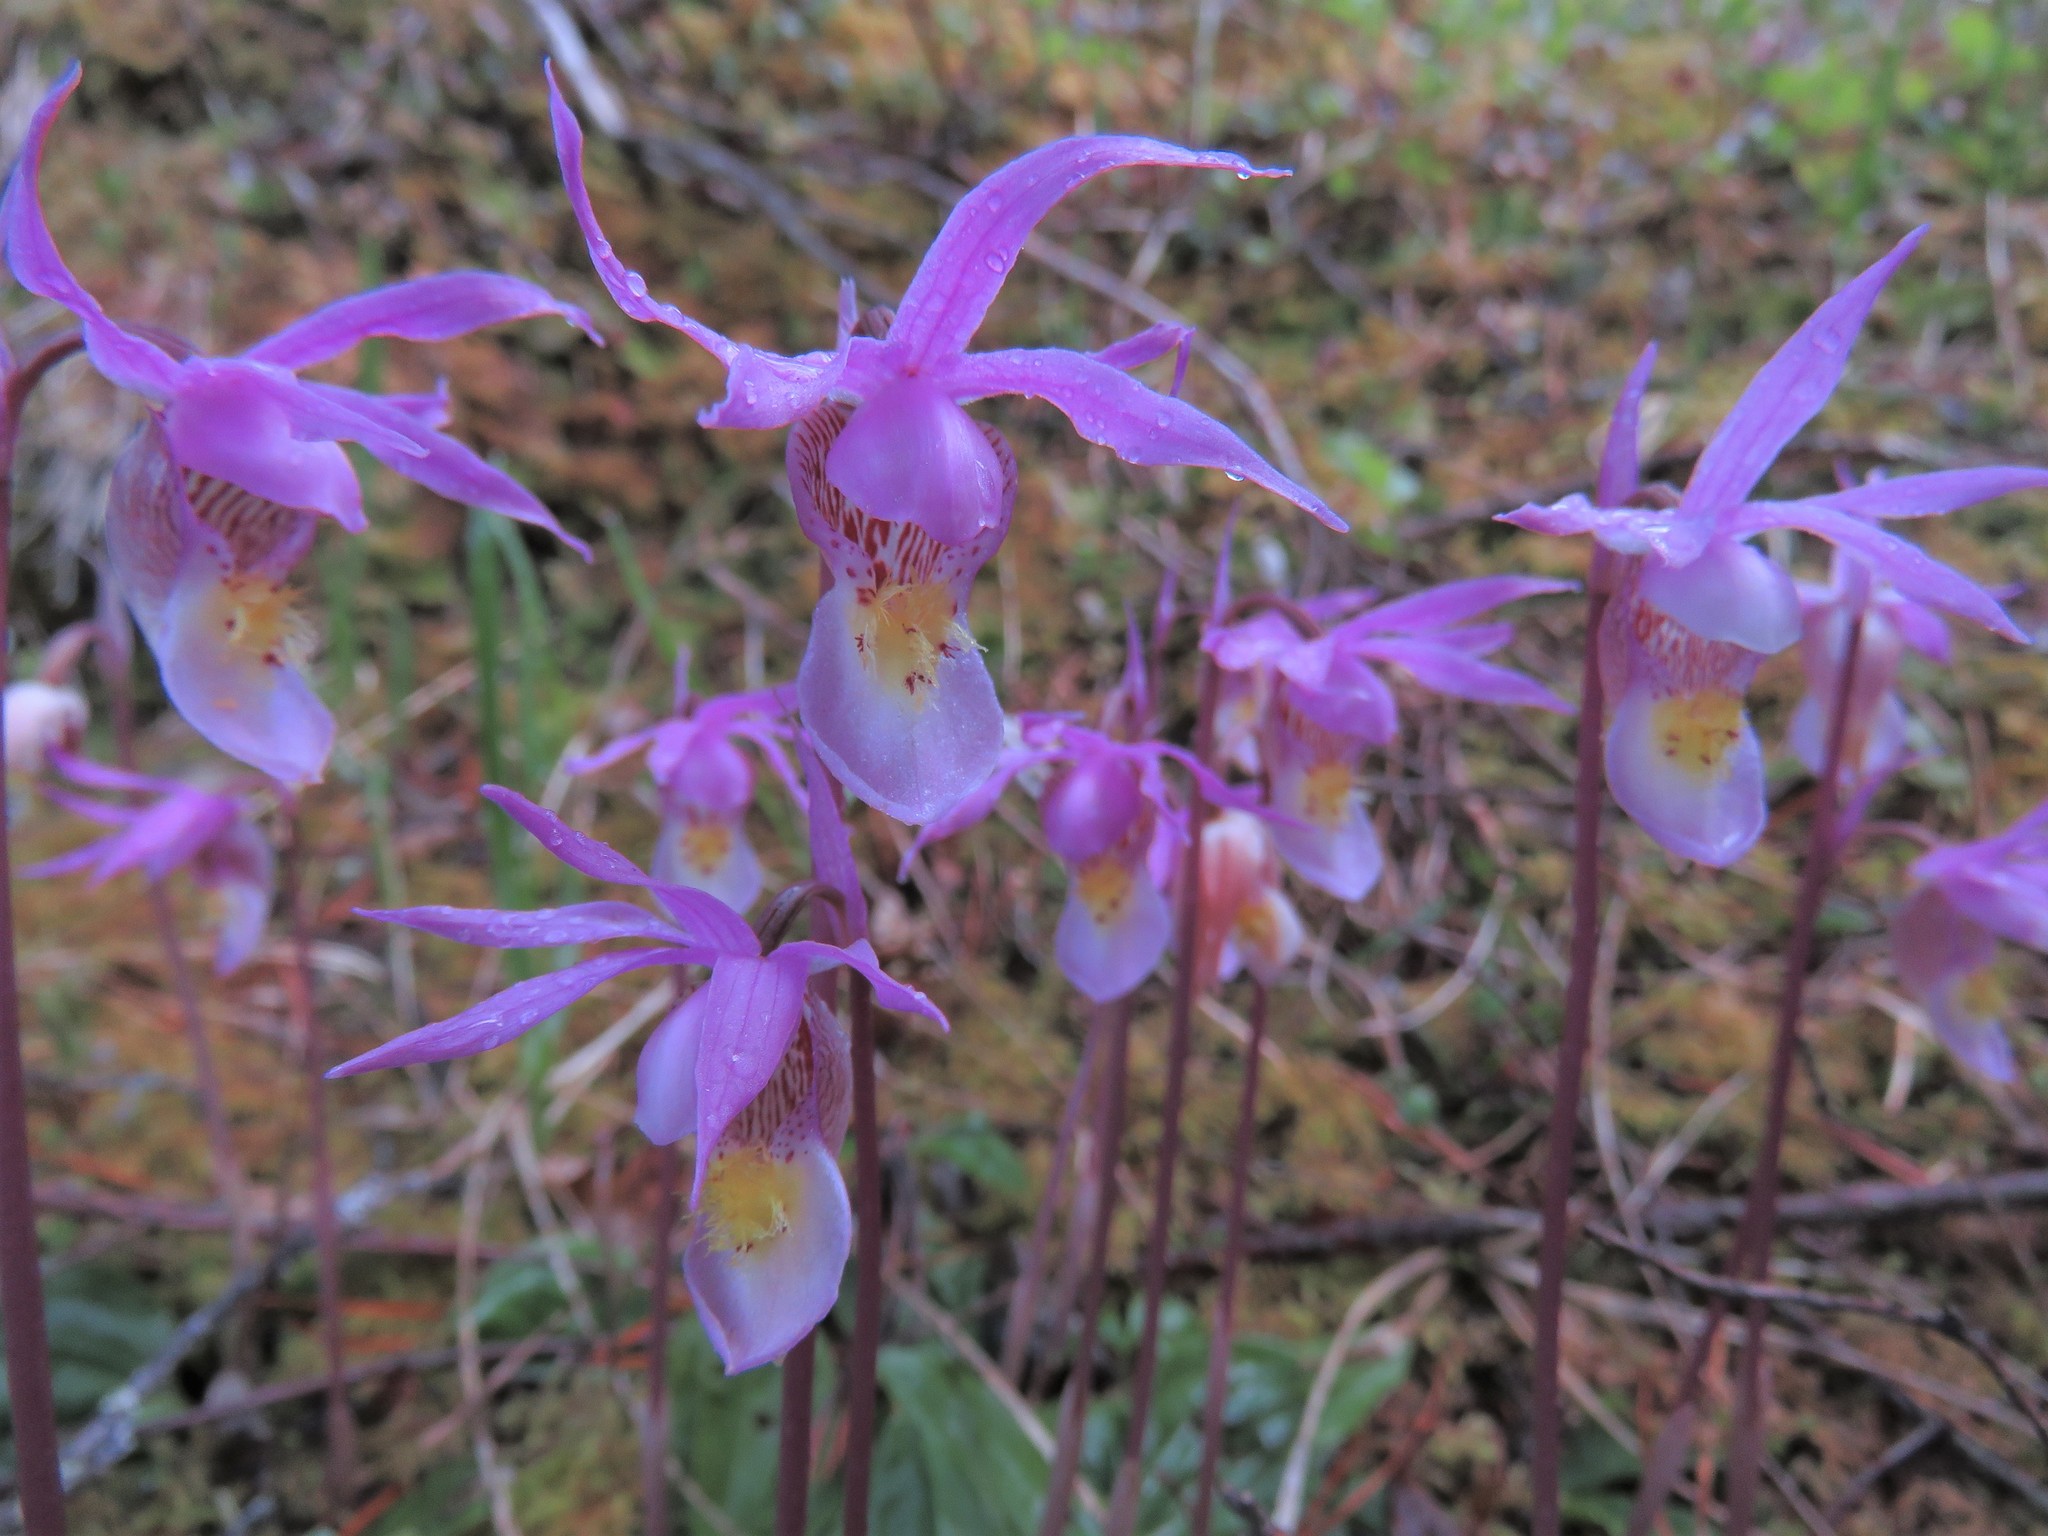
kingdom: Plantae
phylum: Tracheophyta
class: Liliopsida
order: Asparagales
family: Orchidaceae
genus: Calypso
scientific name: Calypso bulbosa
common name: Calypso
